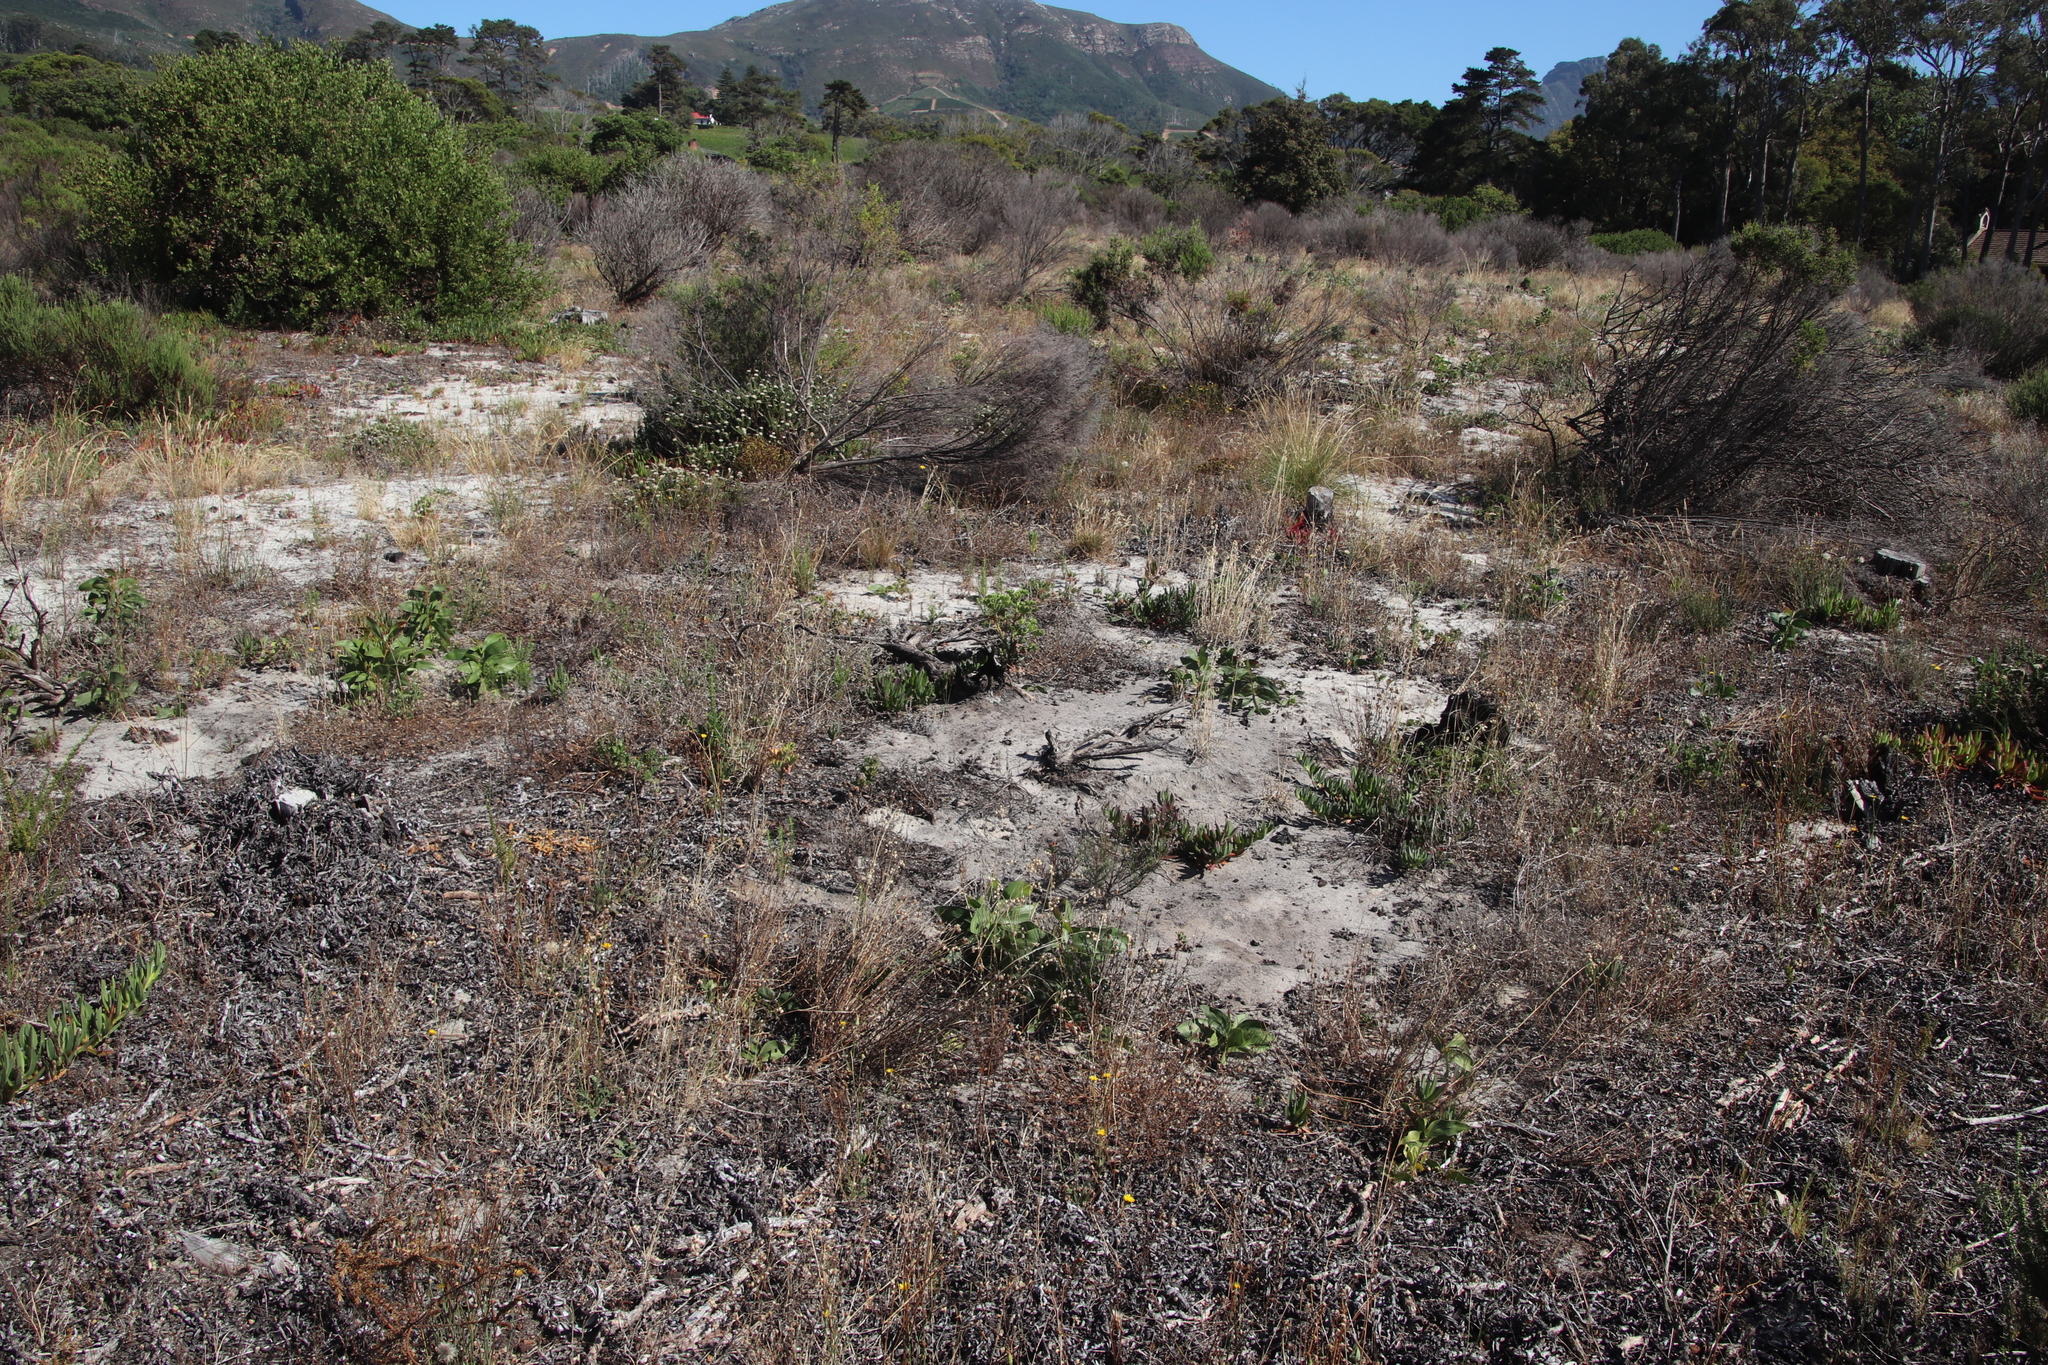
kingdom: Plantae
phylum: Tracheophyta
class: Magnoliopsida
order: Fabales
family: Fabaceae
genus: Acacia
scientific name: Acacia pycnantha
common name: Golden wattle
